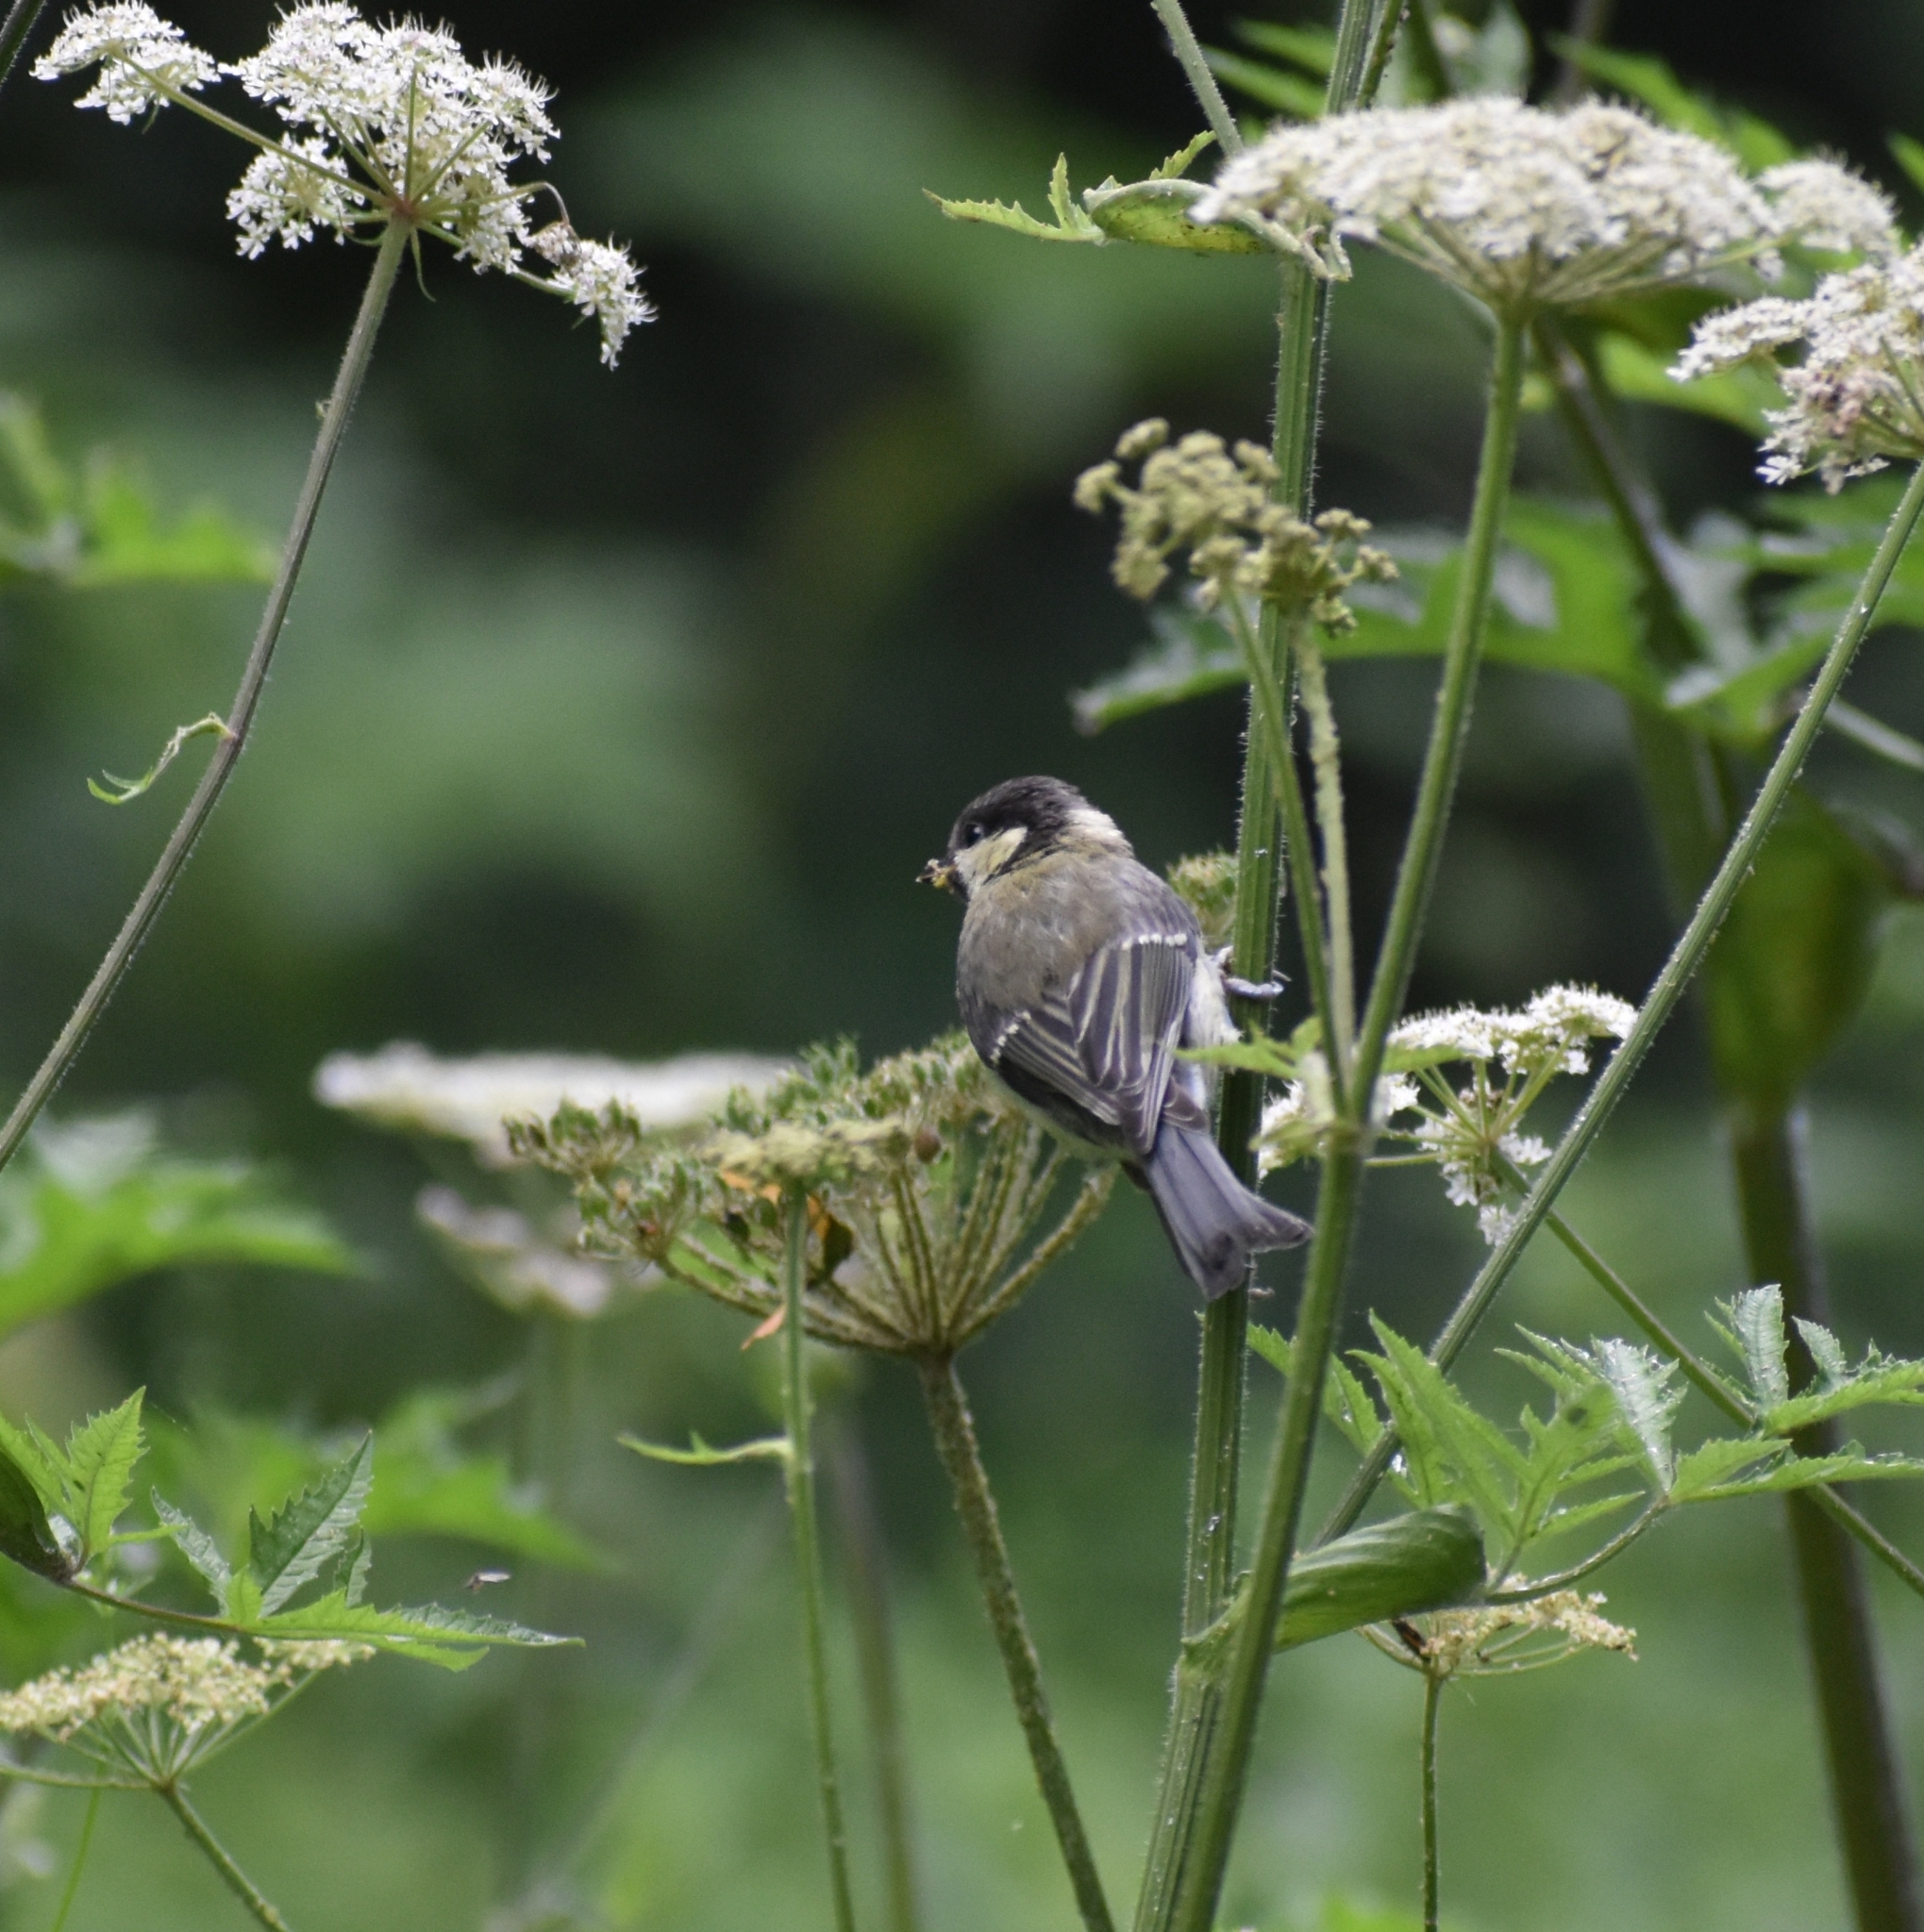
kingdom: Animalia
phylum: Chordata
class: Aves
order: Passeriformes
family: Paridae
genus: Parus
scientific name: Parus major
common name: Great tit
